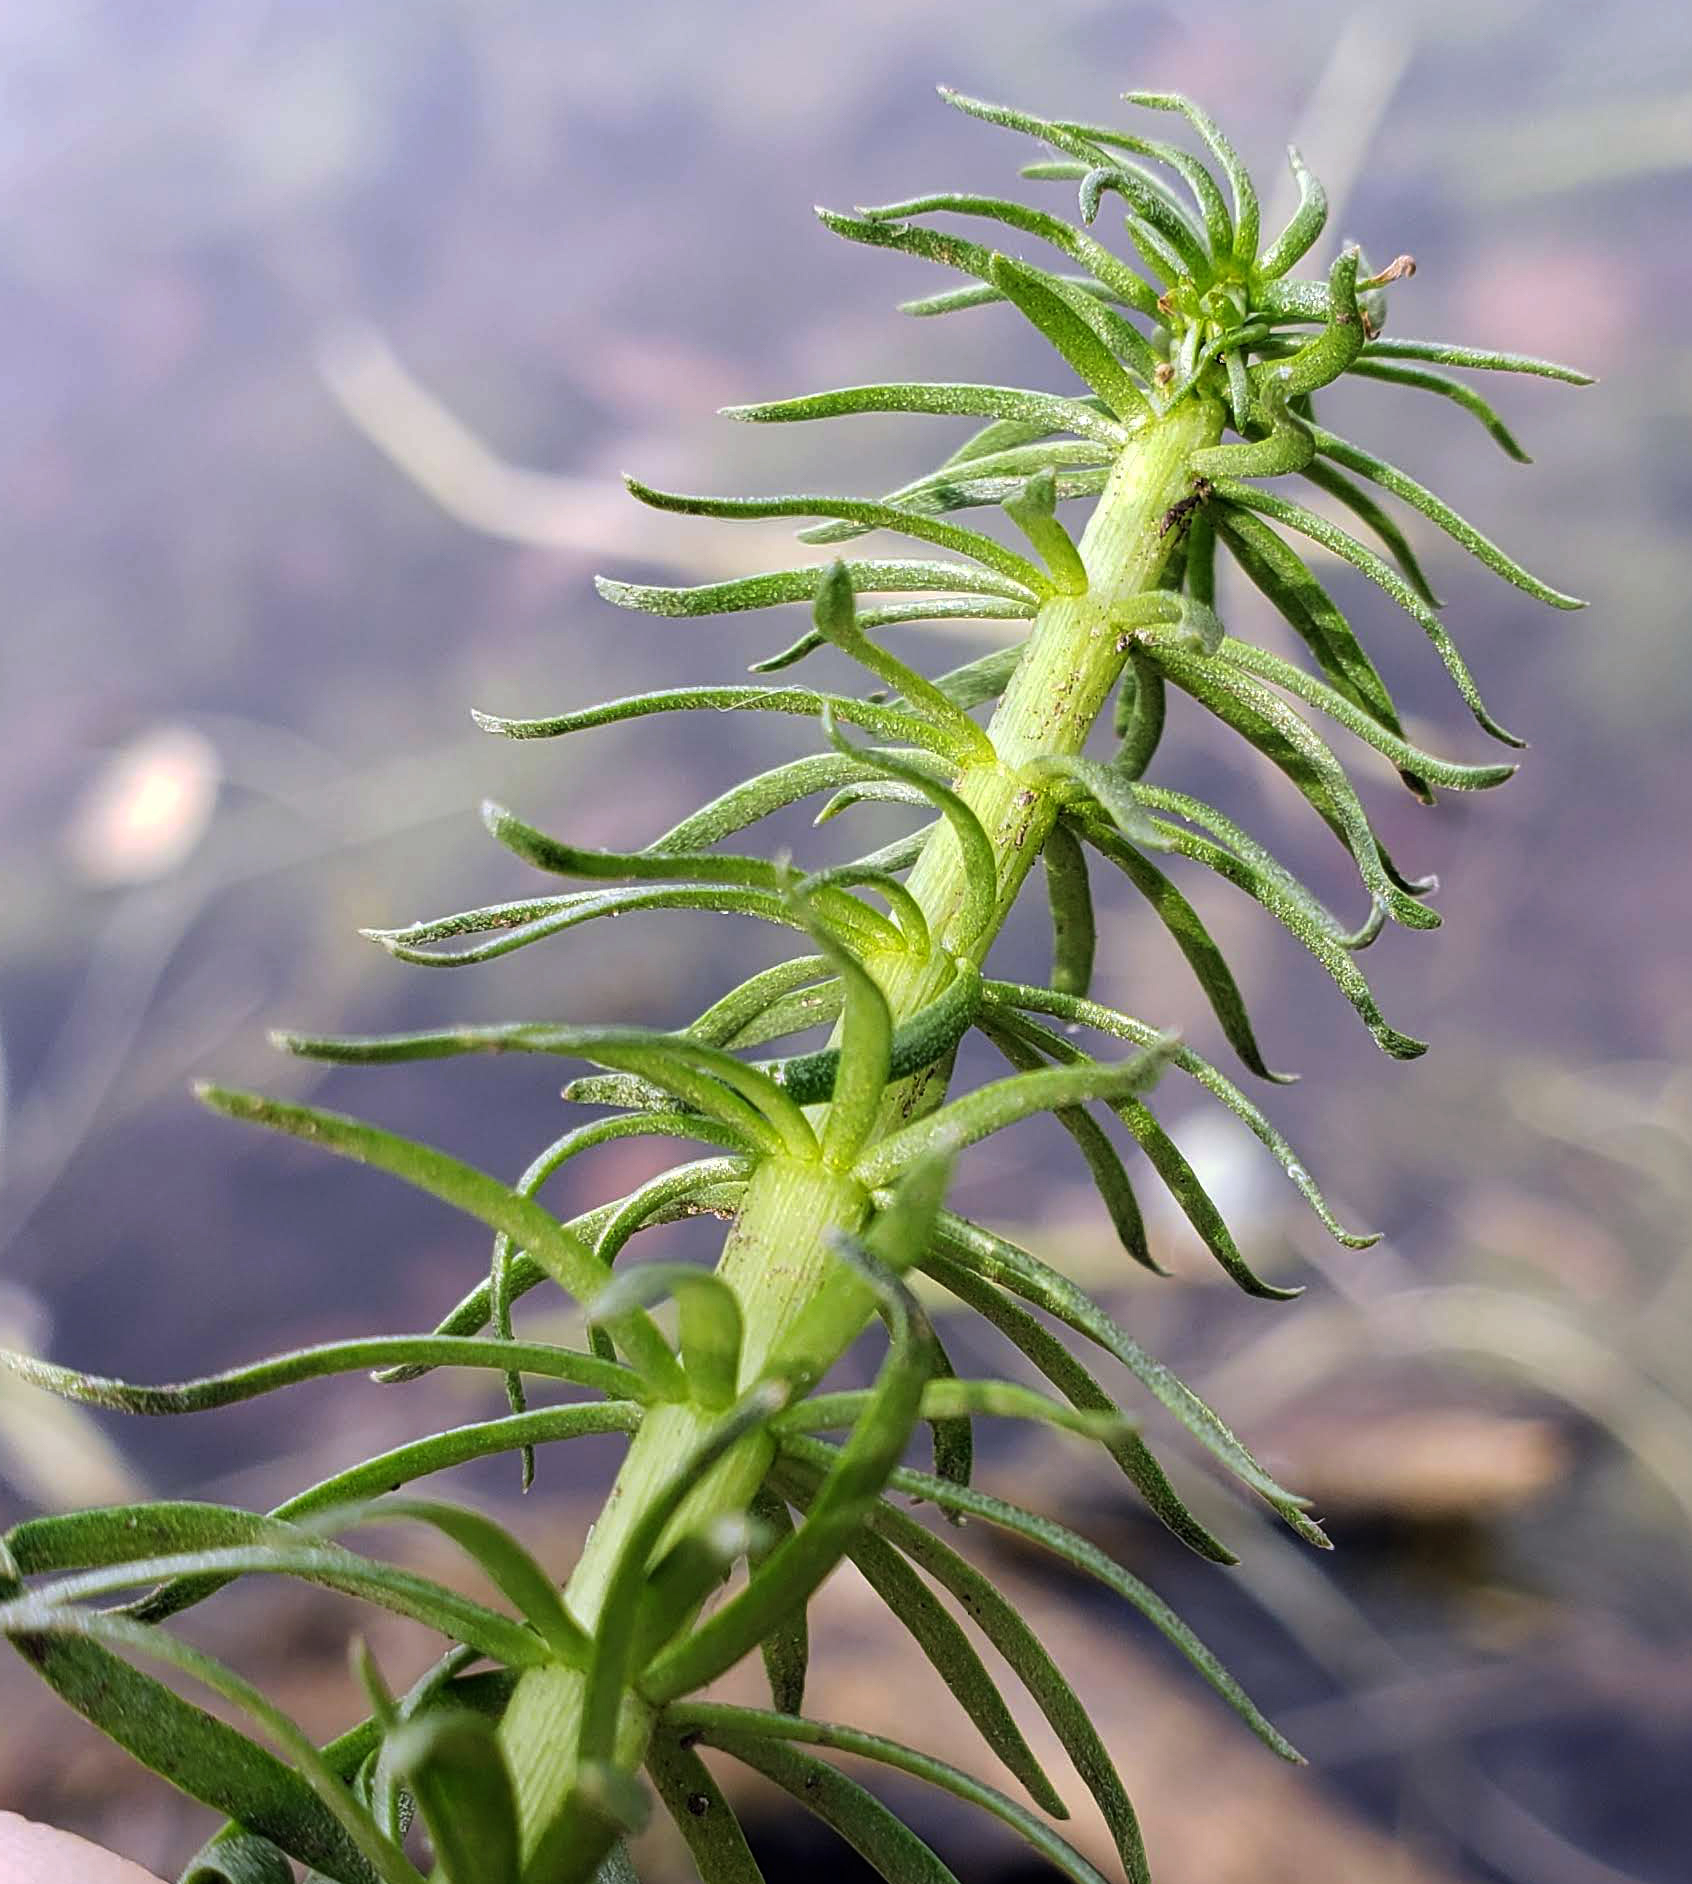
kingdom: Plantae
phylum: Tracheophyta
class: Magnoliopsida
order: Lamiales
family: Plantaginaceae
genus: Hippuris
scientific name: Hippuris vulgaris
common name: Mare's-tail
